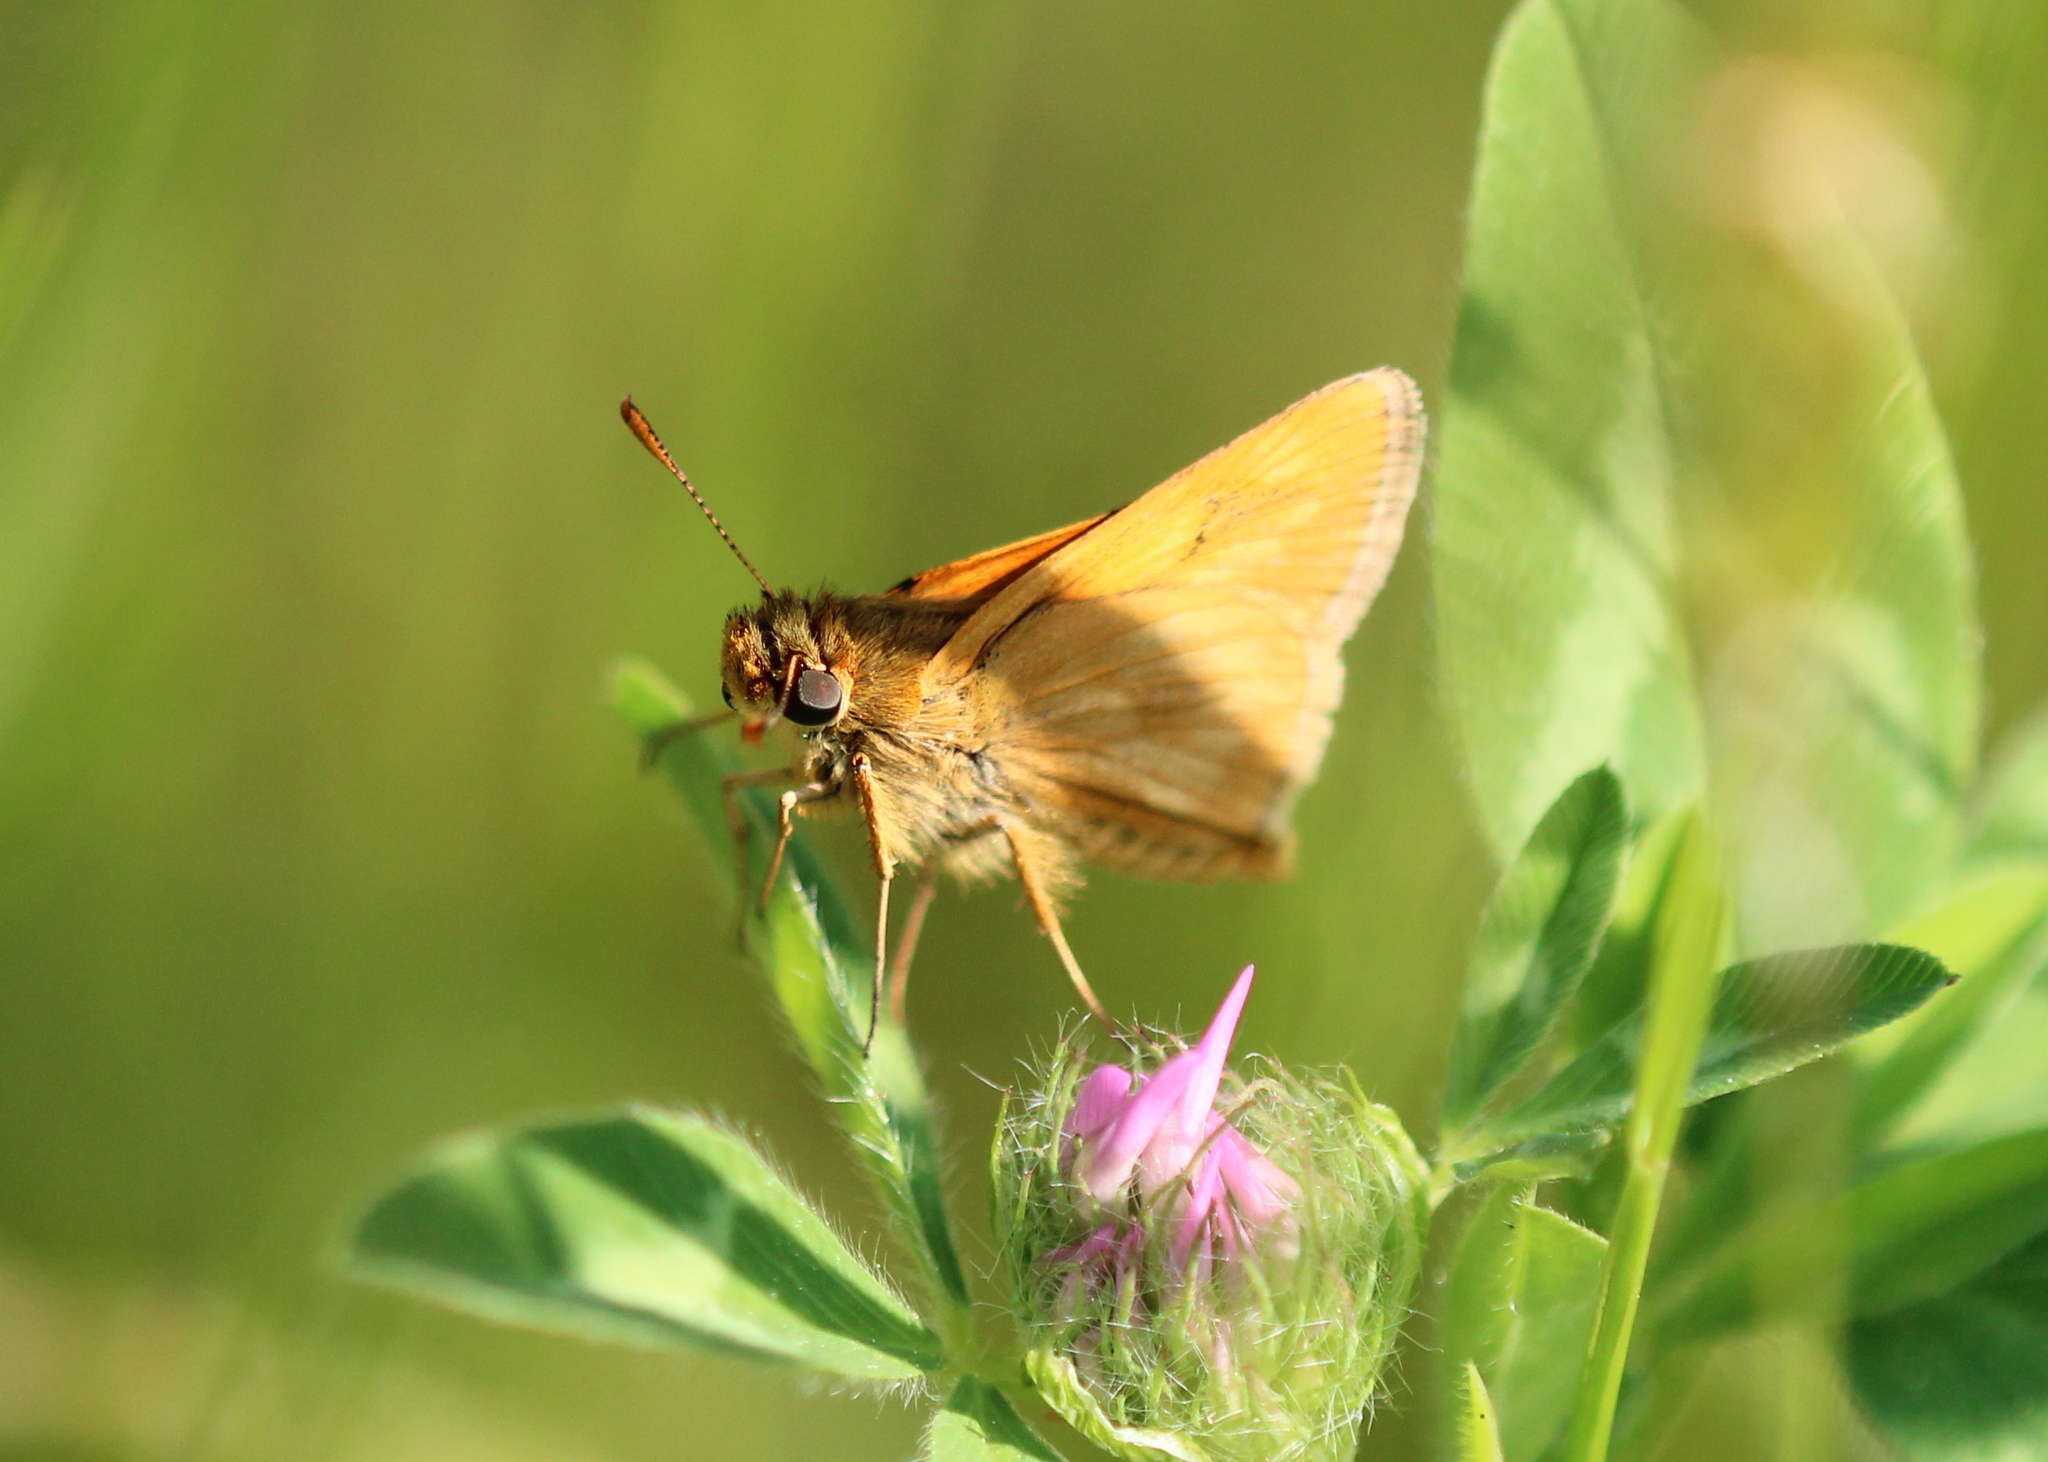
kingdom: Animalia
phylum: Arthropoda
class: Insecta
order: Lepidoptera
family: Hesperiidae
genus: Polites
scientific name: Polites mystic
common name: Long dash
